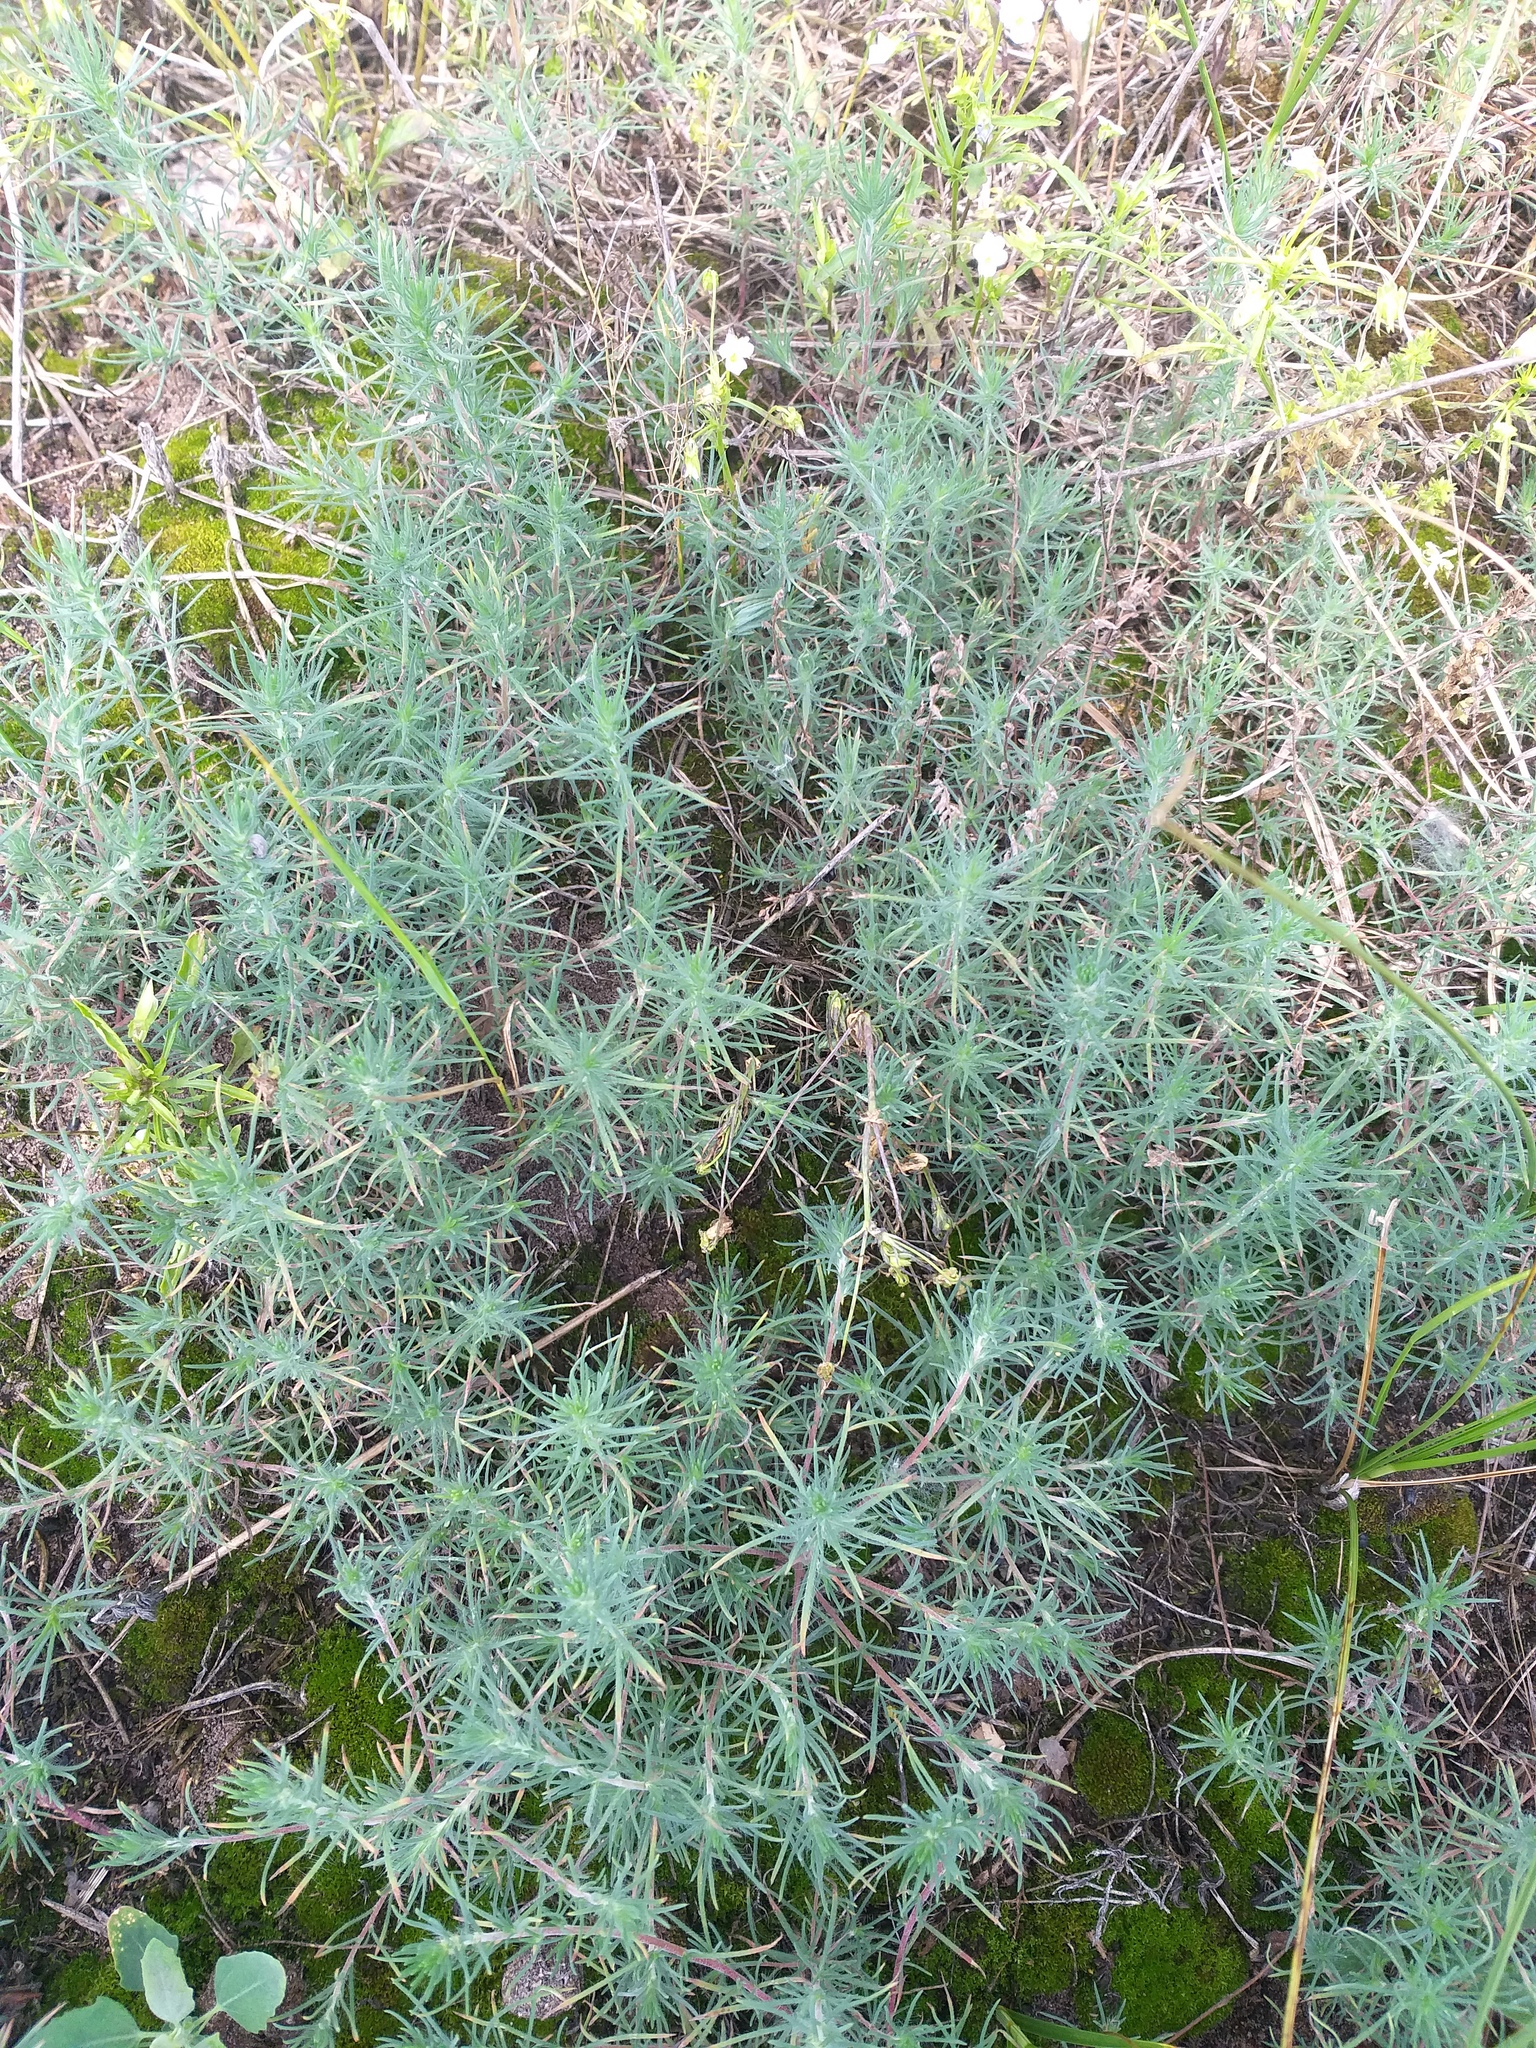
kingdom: Plantae
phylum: Tracheophyta
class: Magnoliopsida
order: Caryophyllales
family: Amaranthaceae
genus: Bassia
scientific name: Bassia laniflora
